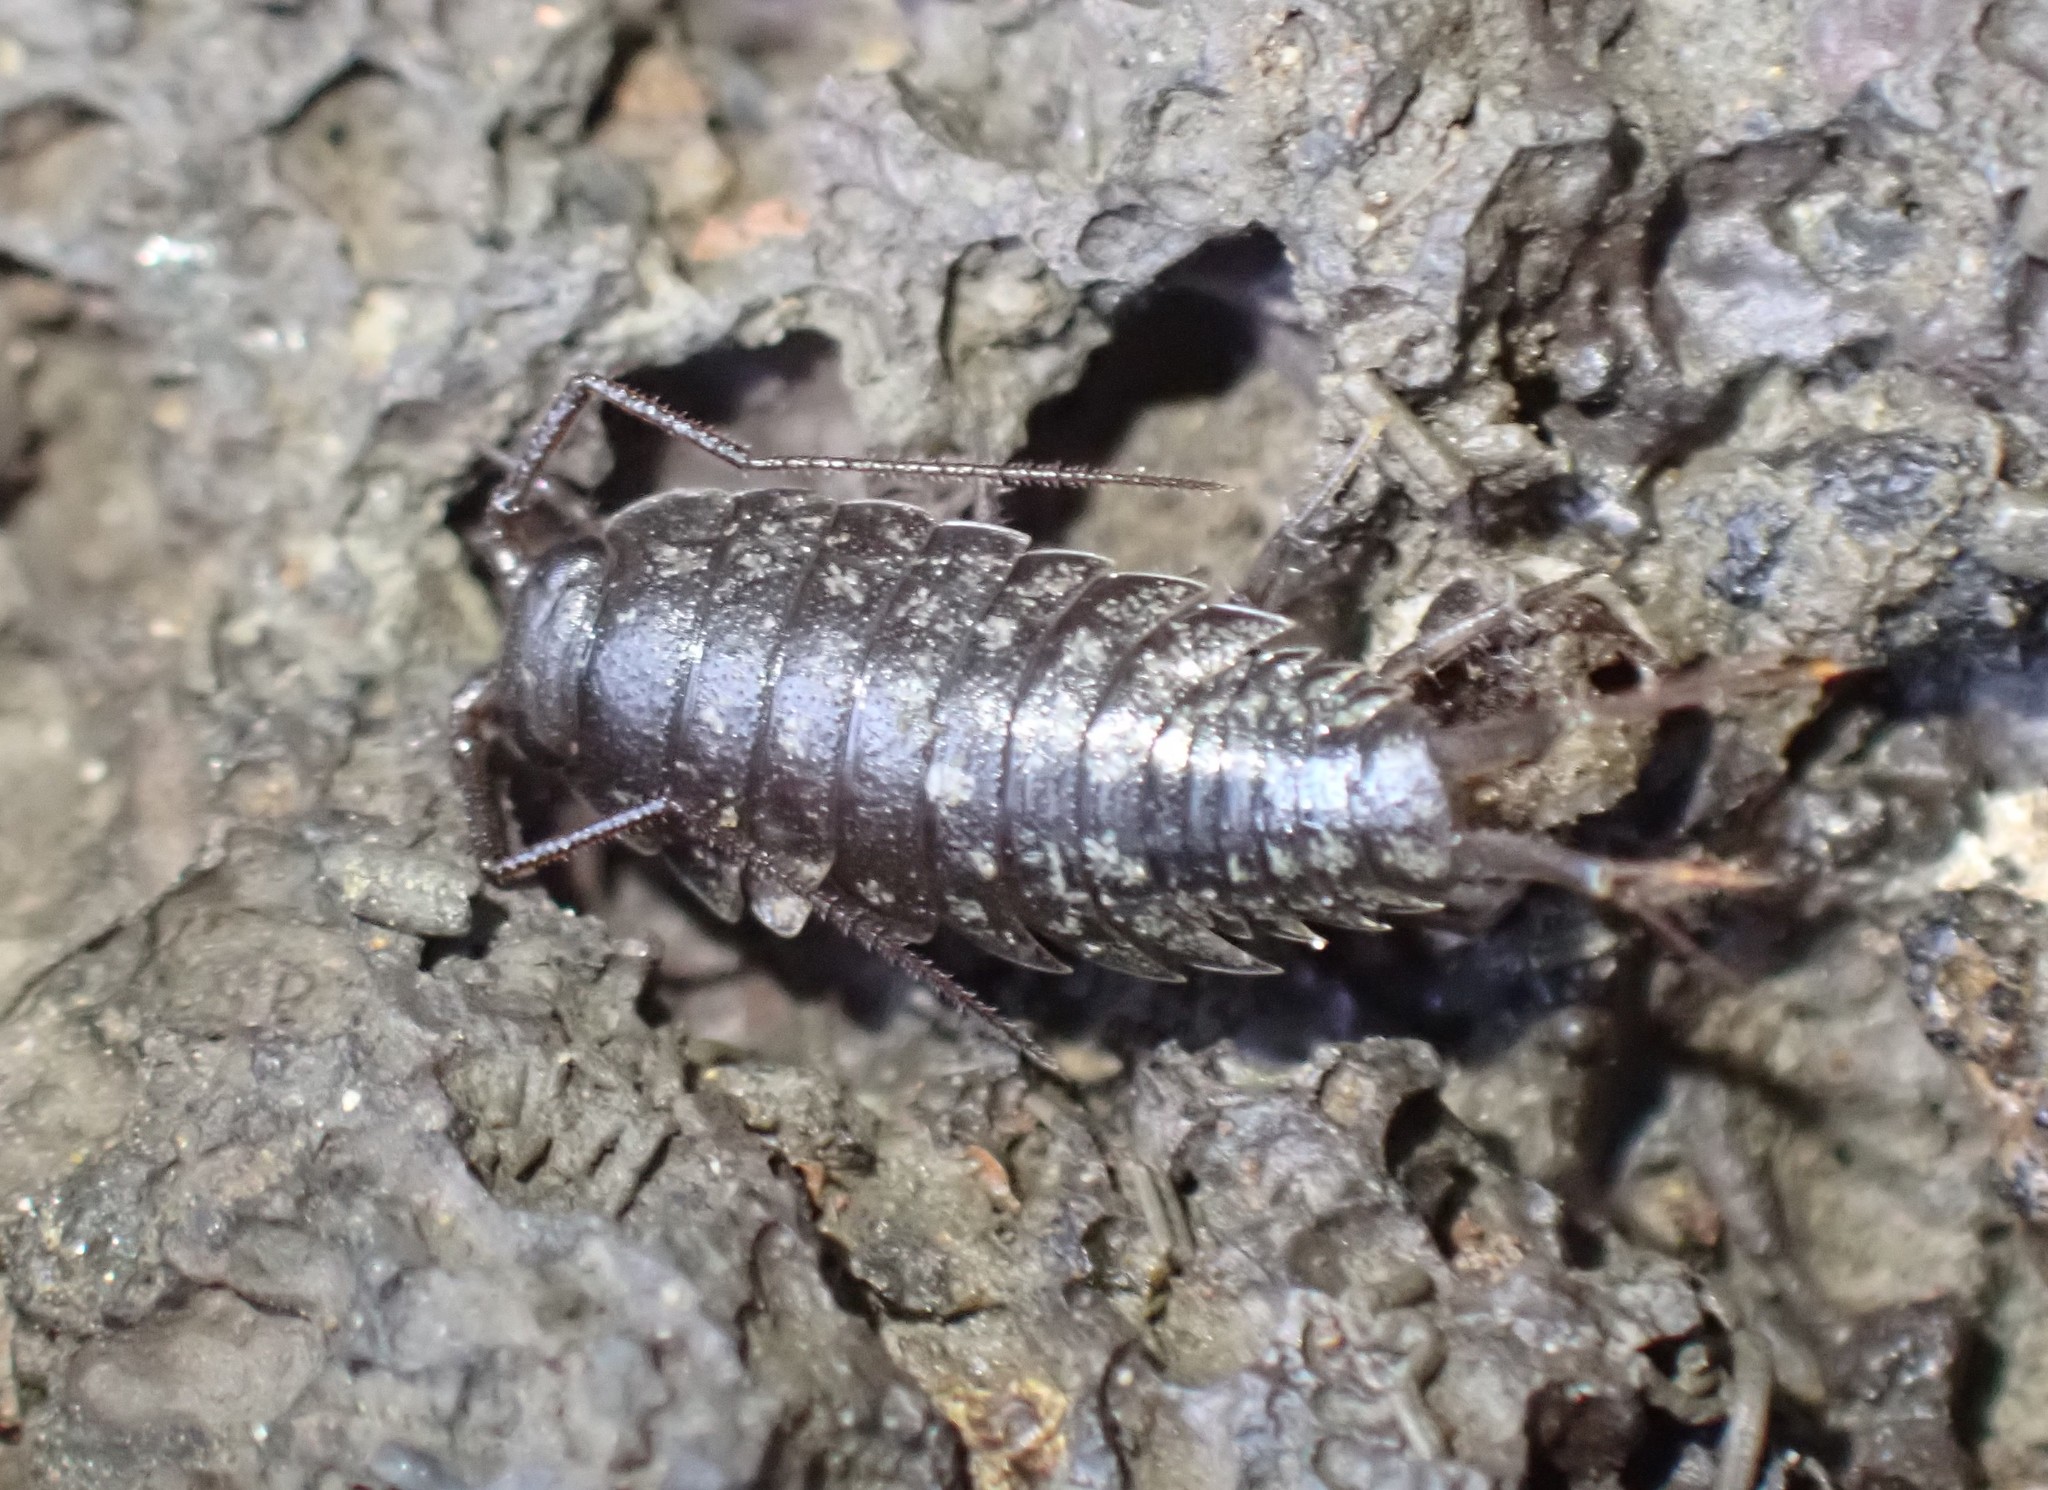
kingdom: Animalia
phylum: Arthropoda
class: Malacostraca
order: Isopoda
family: Ligiidae
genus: Ligia
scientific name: Ligia novizealandiae
